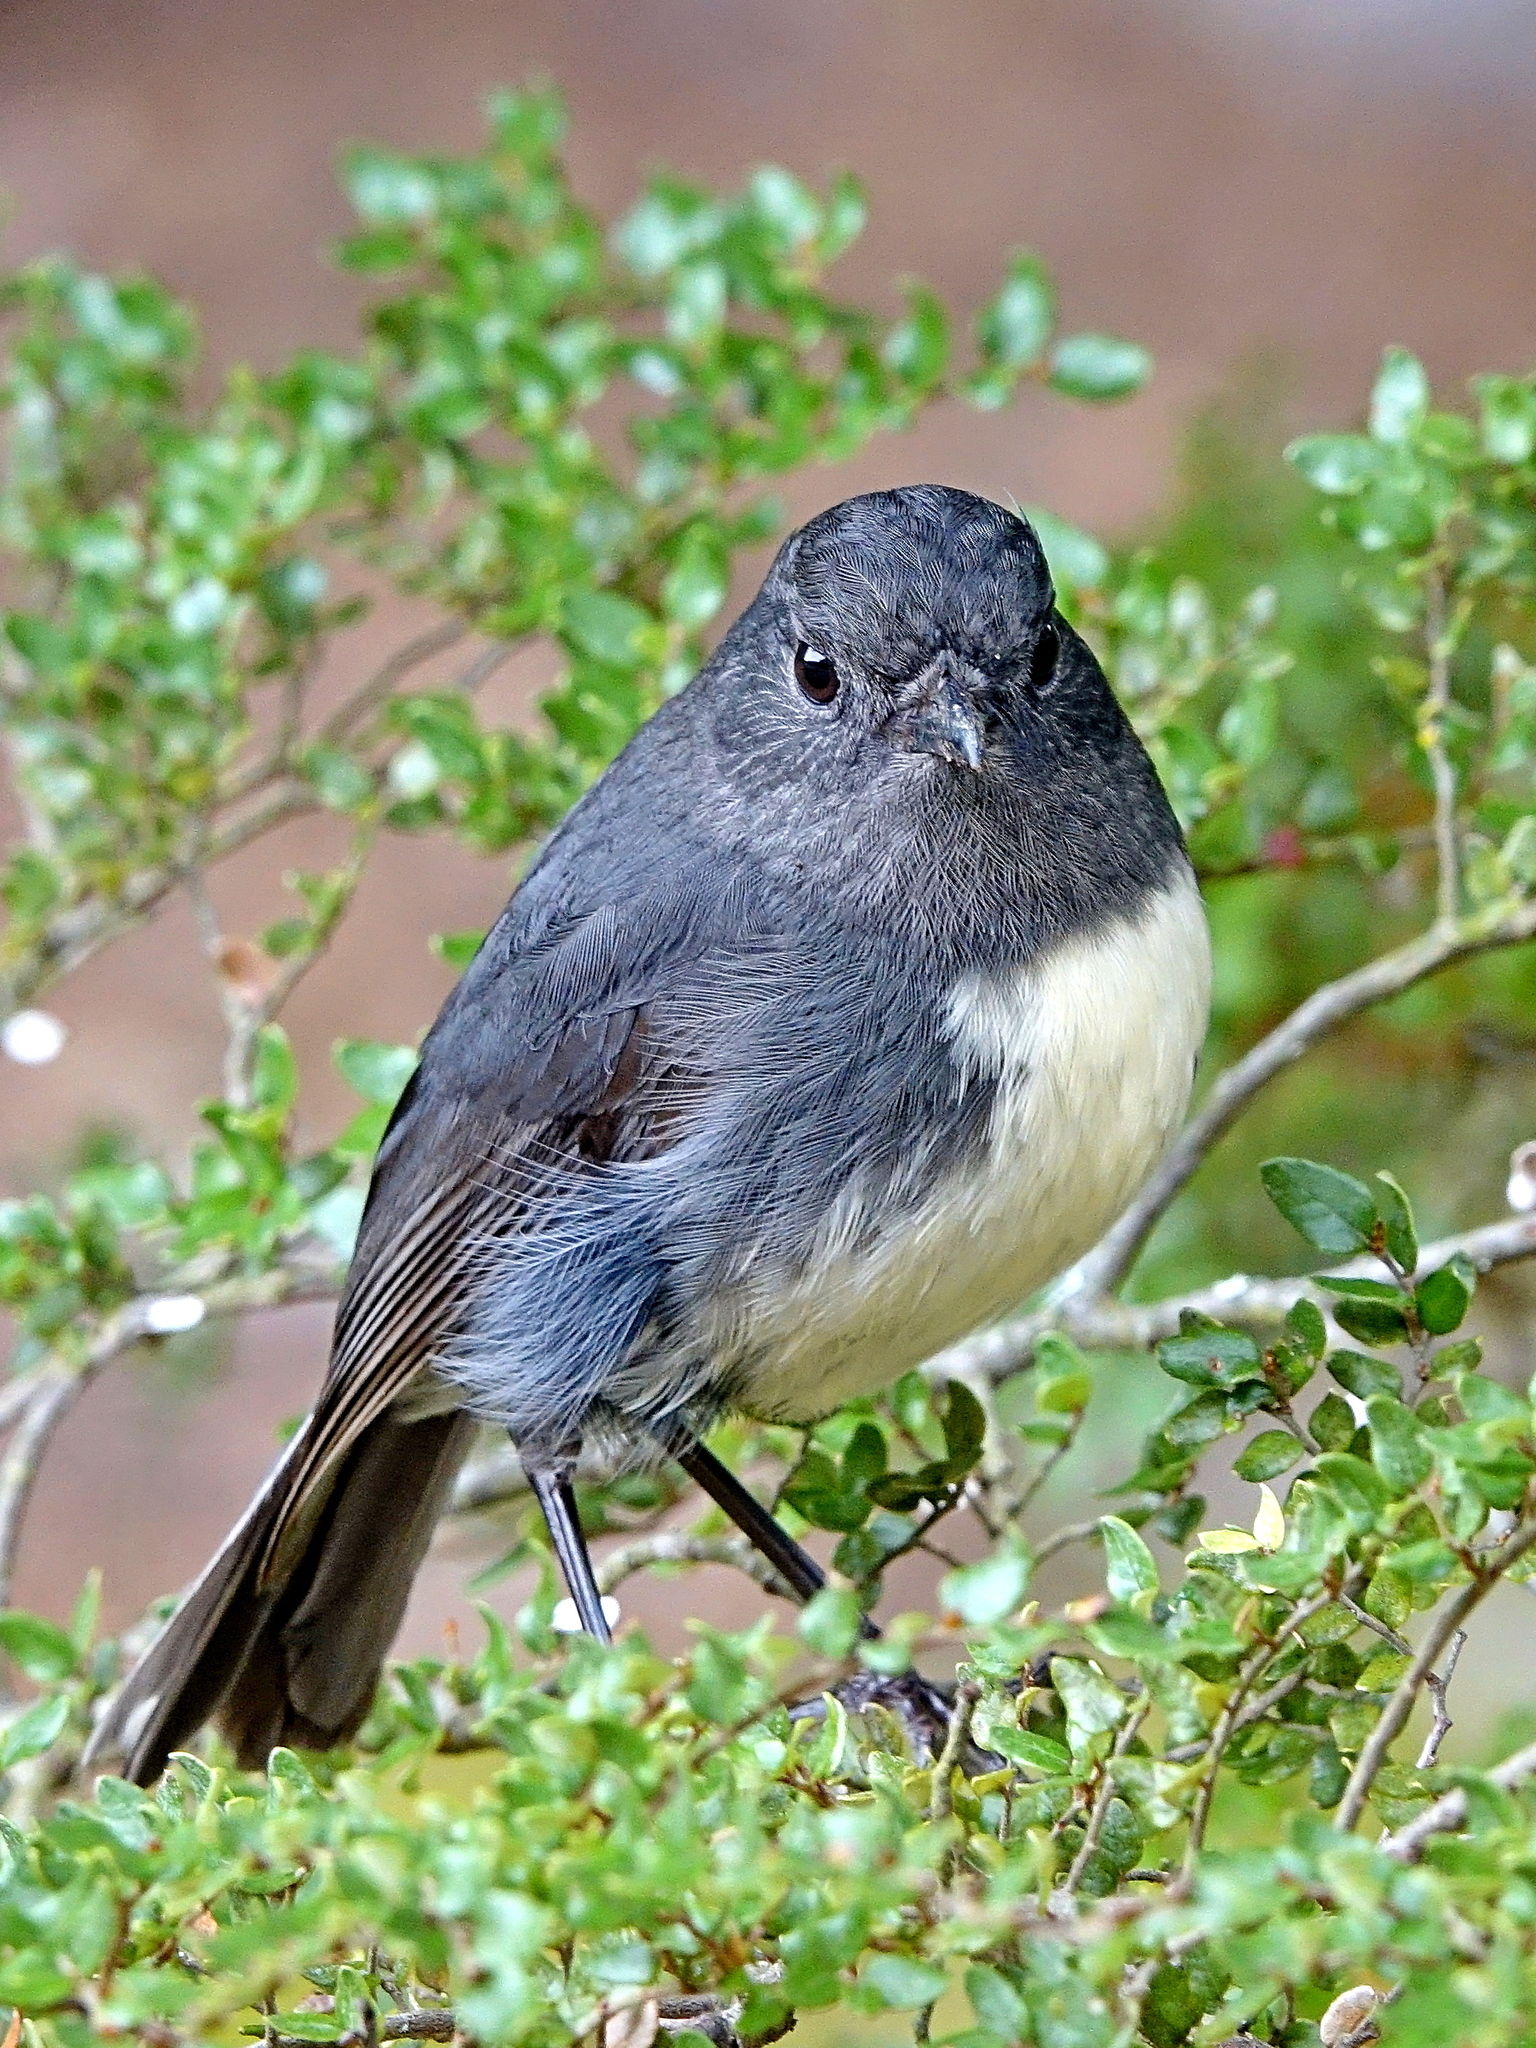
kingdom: Animalia
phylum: Chordata
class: Aves
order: Passeriformes
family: Petroicidae
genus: Petroica
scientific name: Petroica australis
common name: New zealand robin
